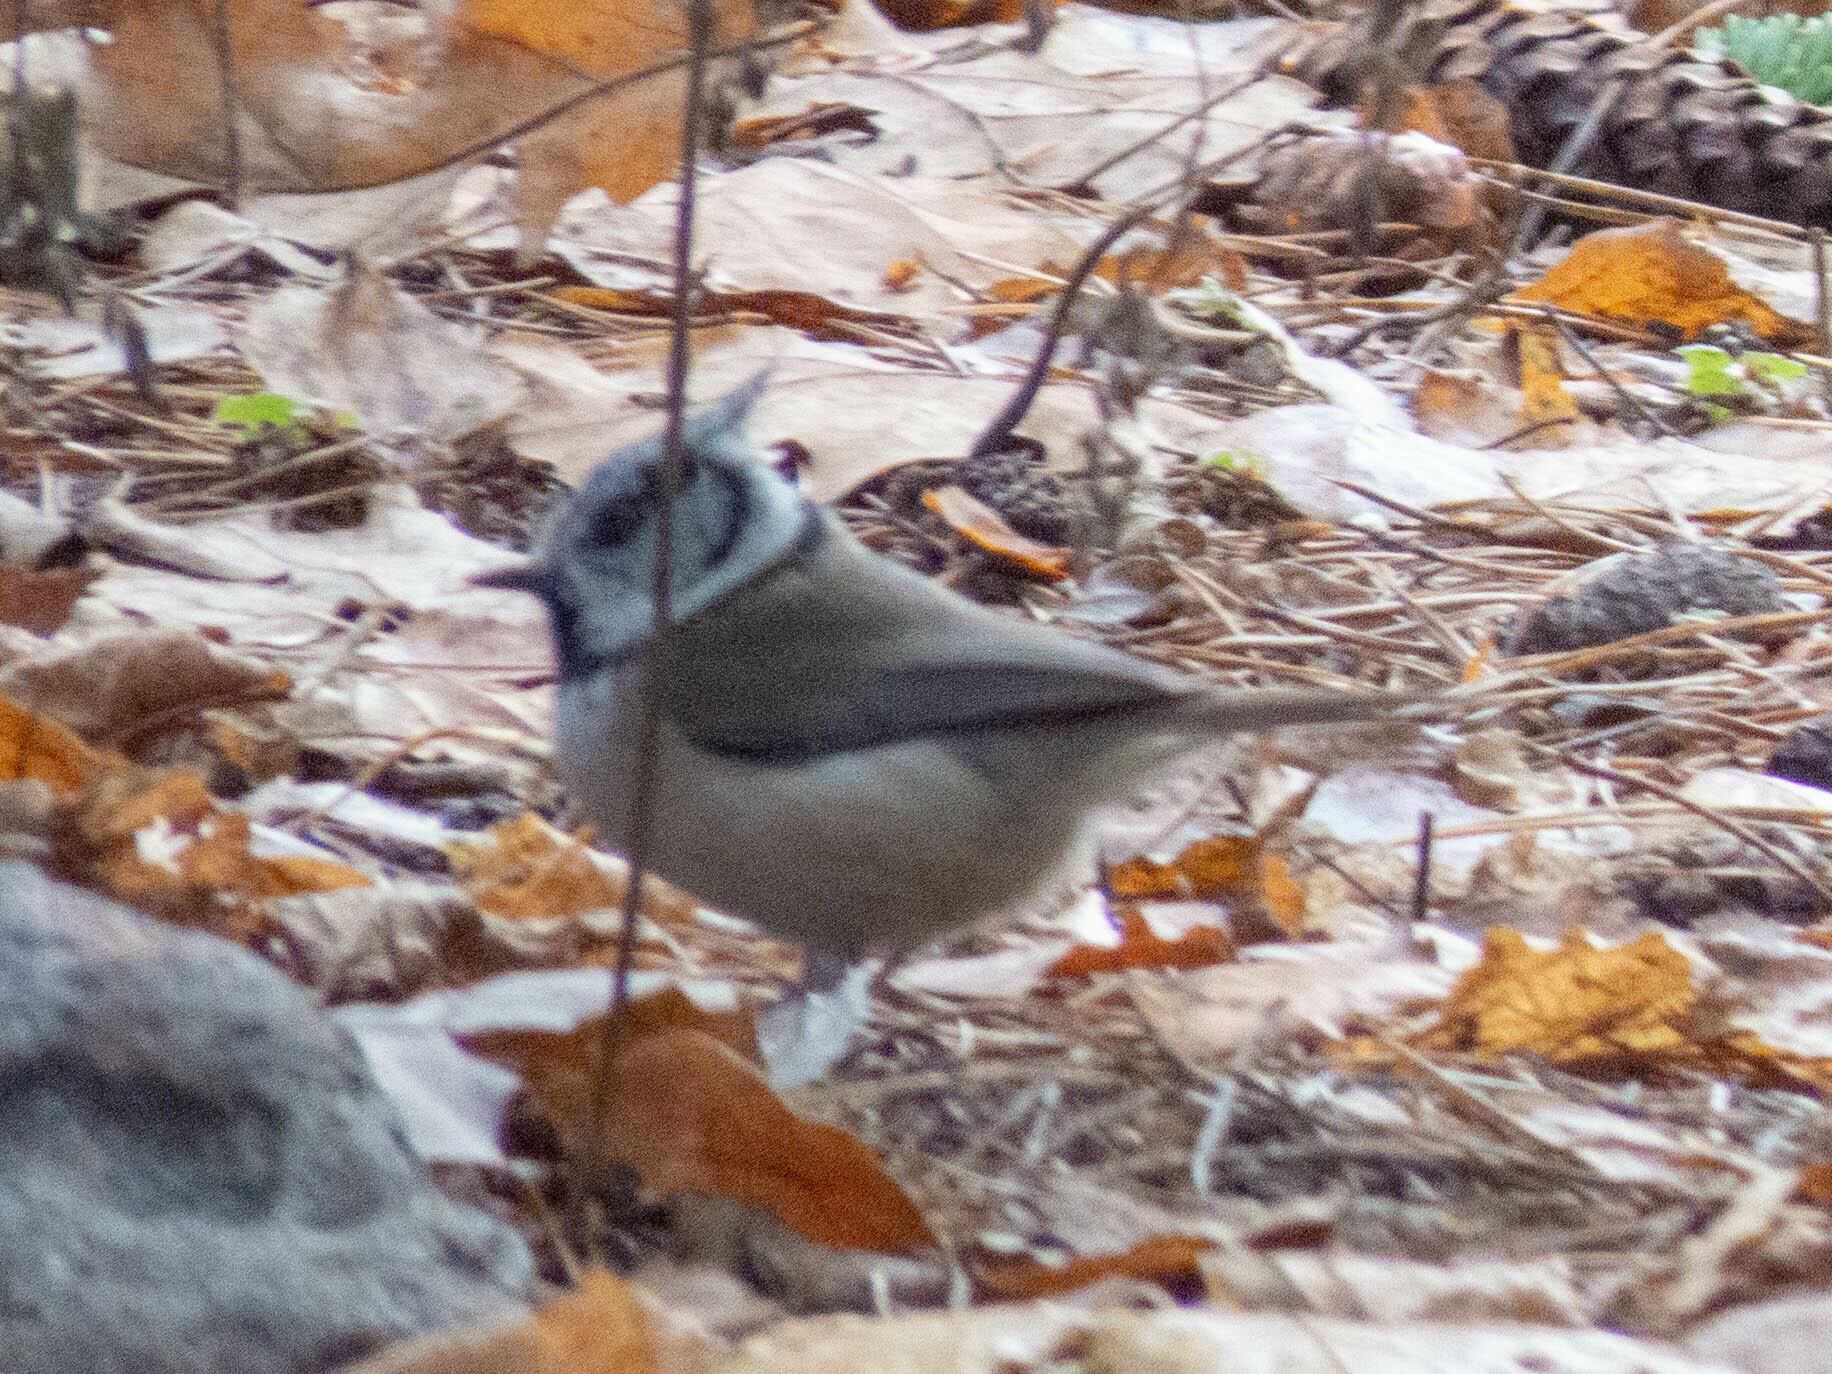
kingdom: Animalia
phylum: Chordata
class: Aves
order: Passeriformes
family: Paridae
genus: Lophophanes
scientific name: Lophophanes cristatus
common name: European crested tit
